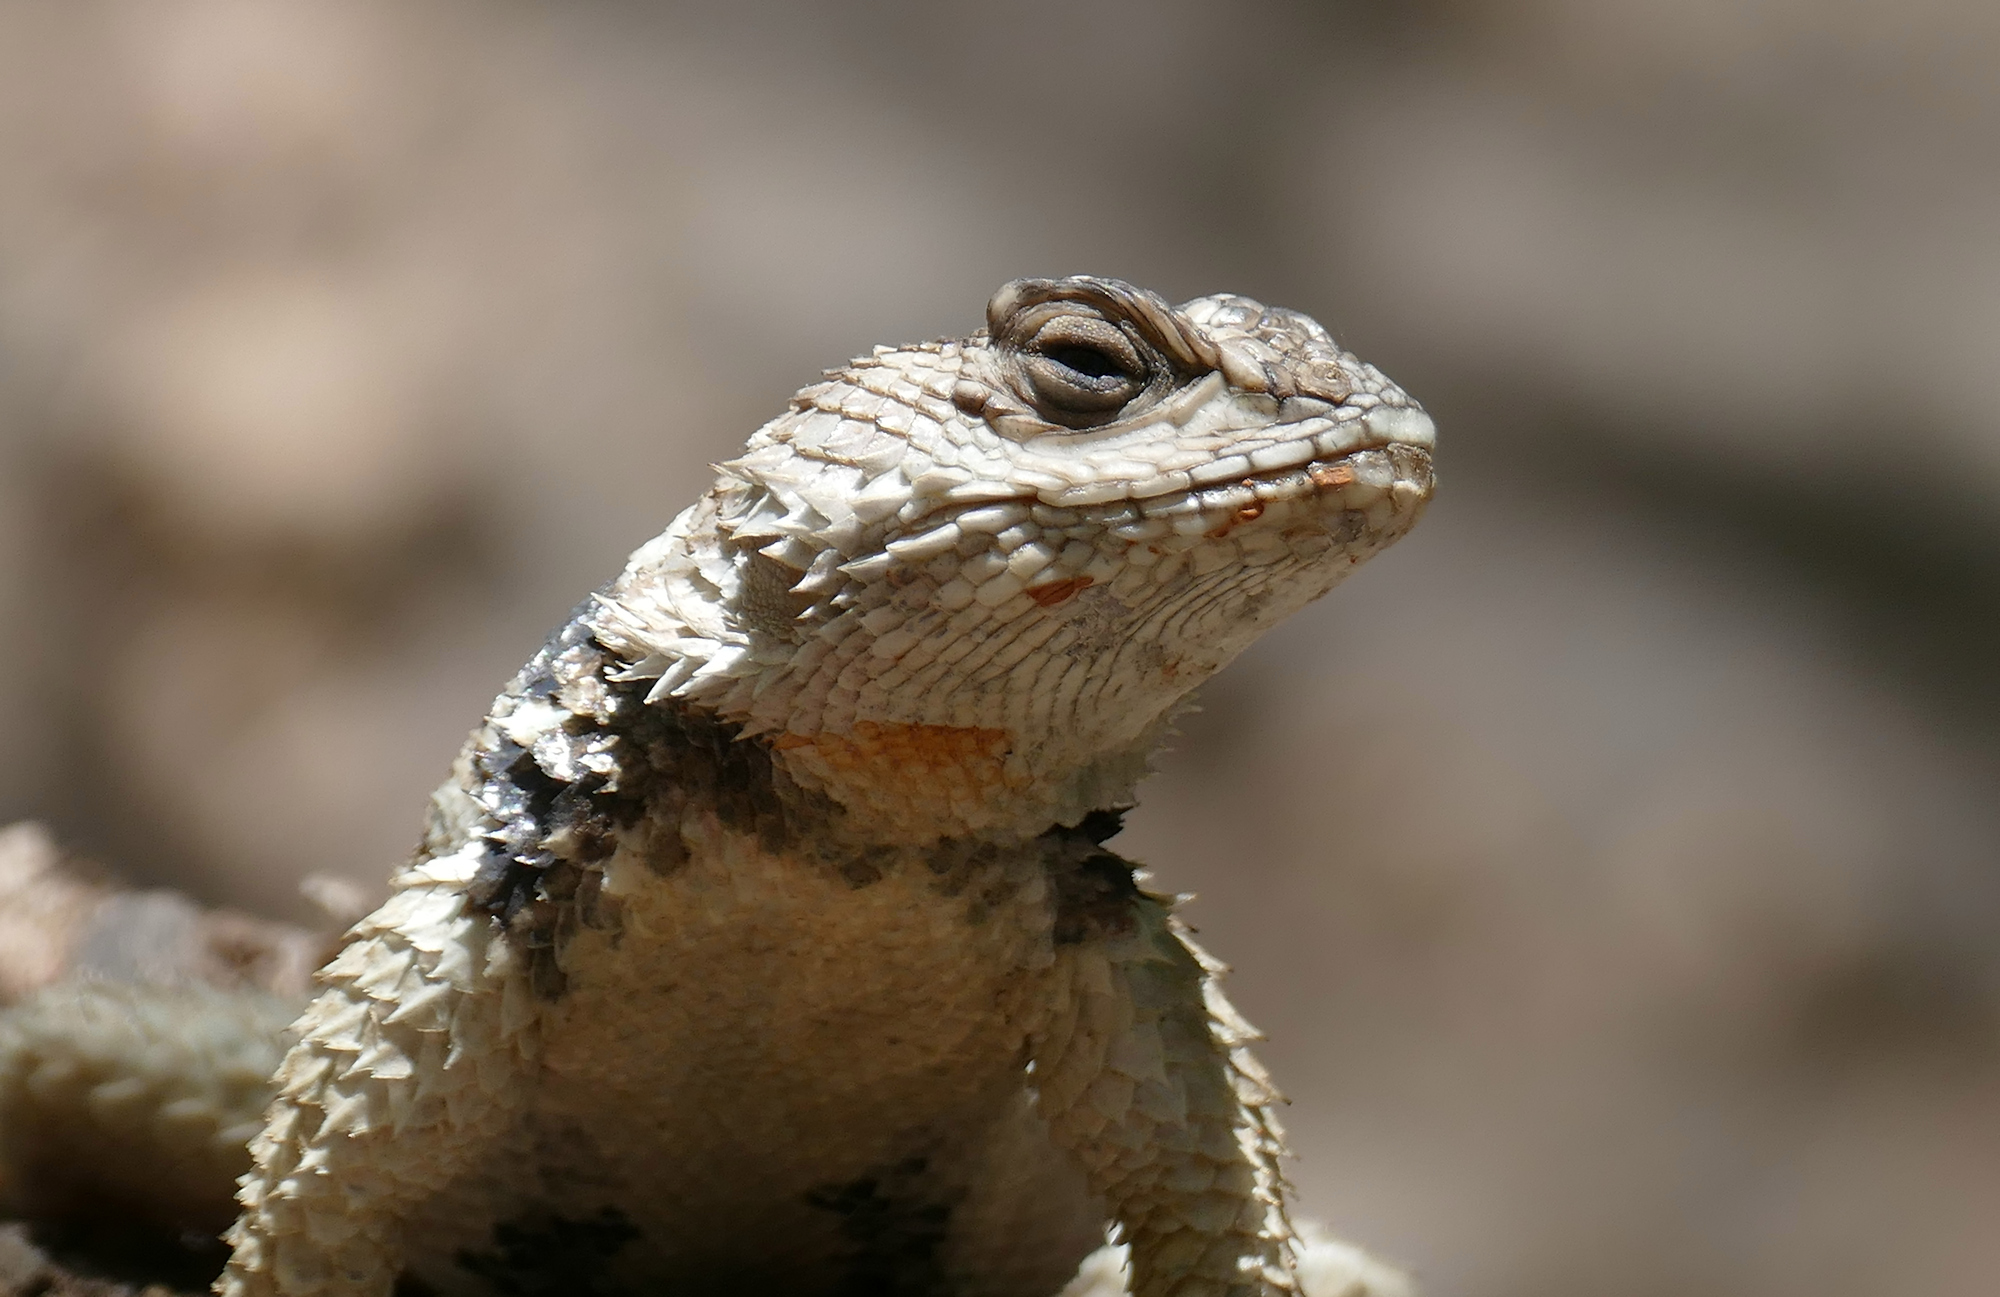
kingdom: Animalia
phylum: Chordata
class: Squamata
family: Phrynosomatidae
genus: Sceloporus
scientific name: Sceloporus poinsettii
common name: Crevice spiny lizard
